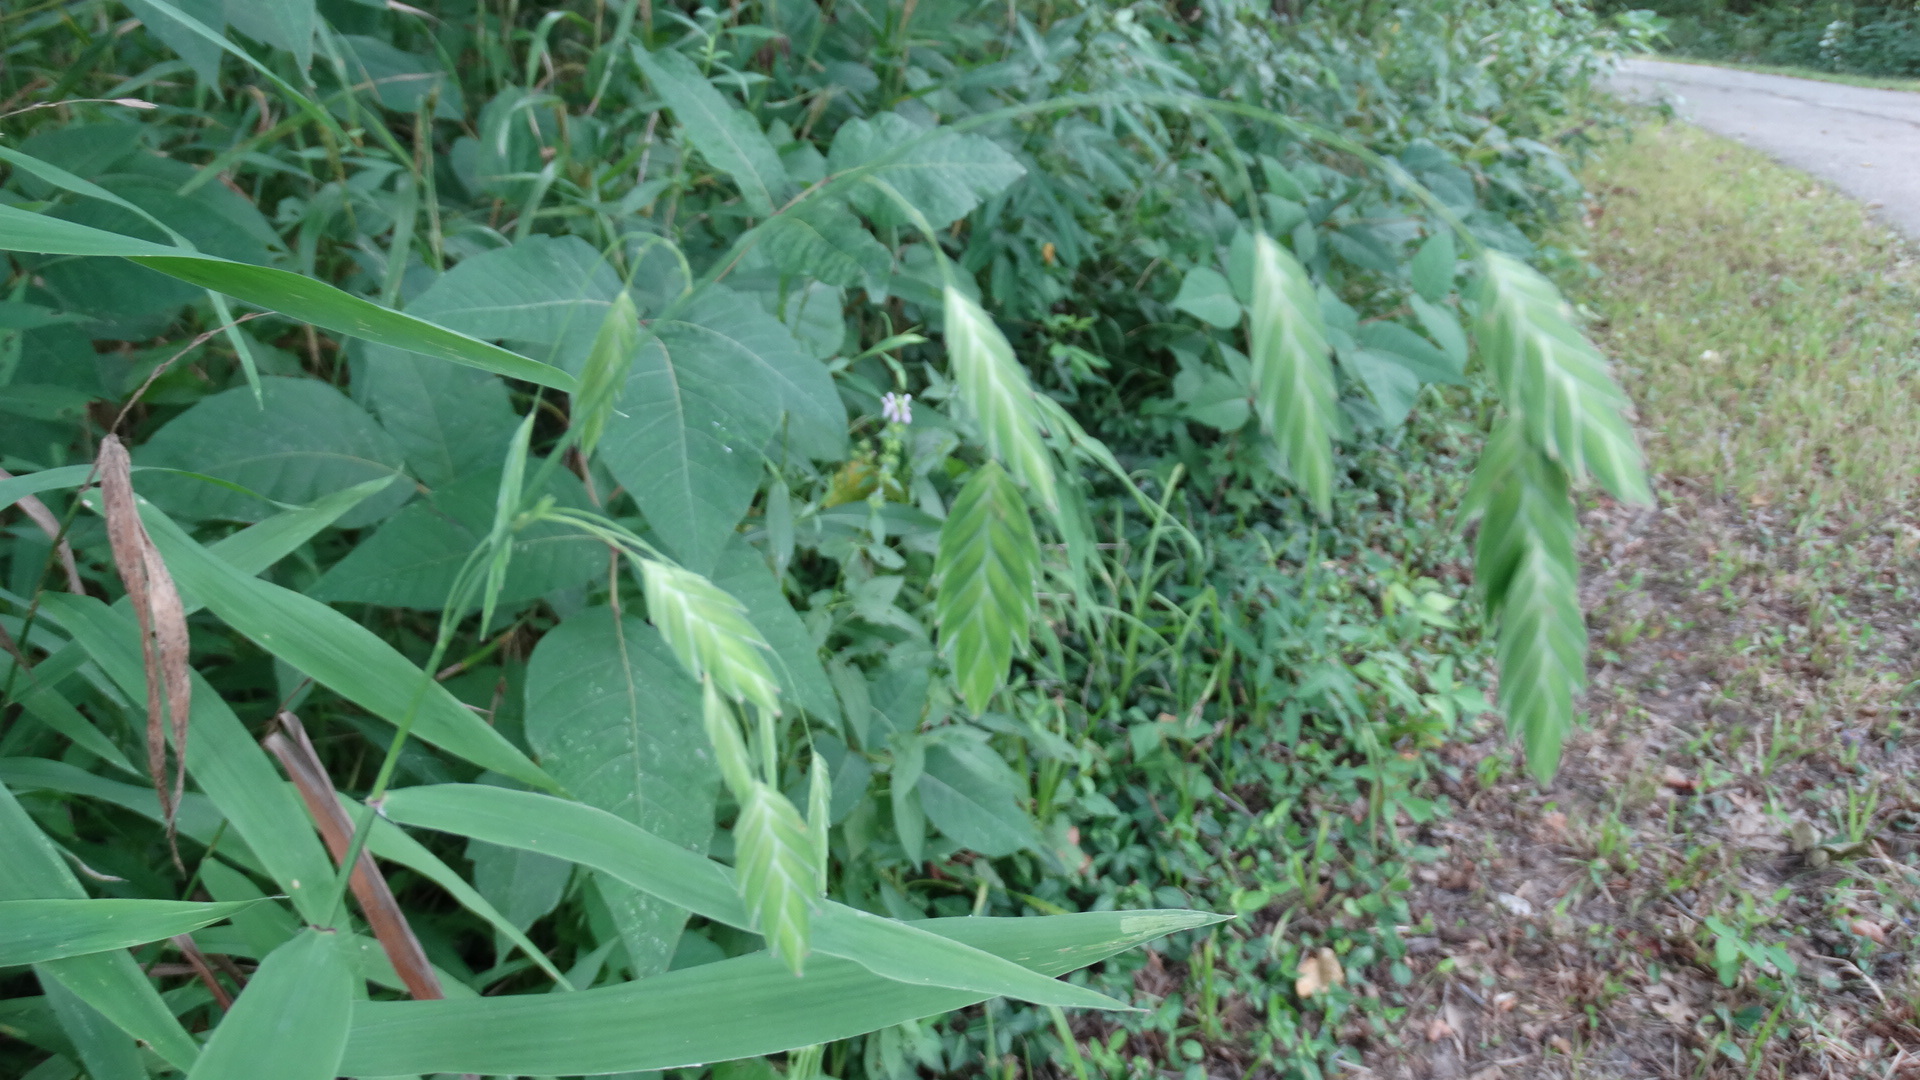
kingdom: Plantae
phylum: Tracheophyta
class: Liliopsida
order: Poales
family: Poaceae
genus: Chasmanthium
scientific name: Chasmanthium latifolium
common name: Broad-leaved chasmanthium
